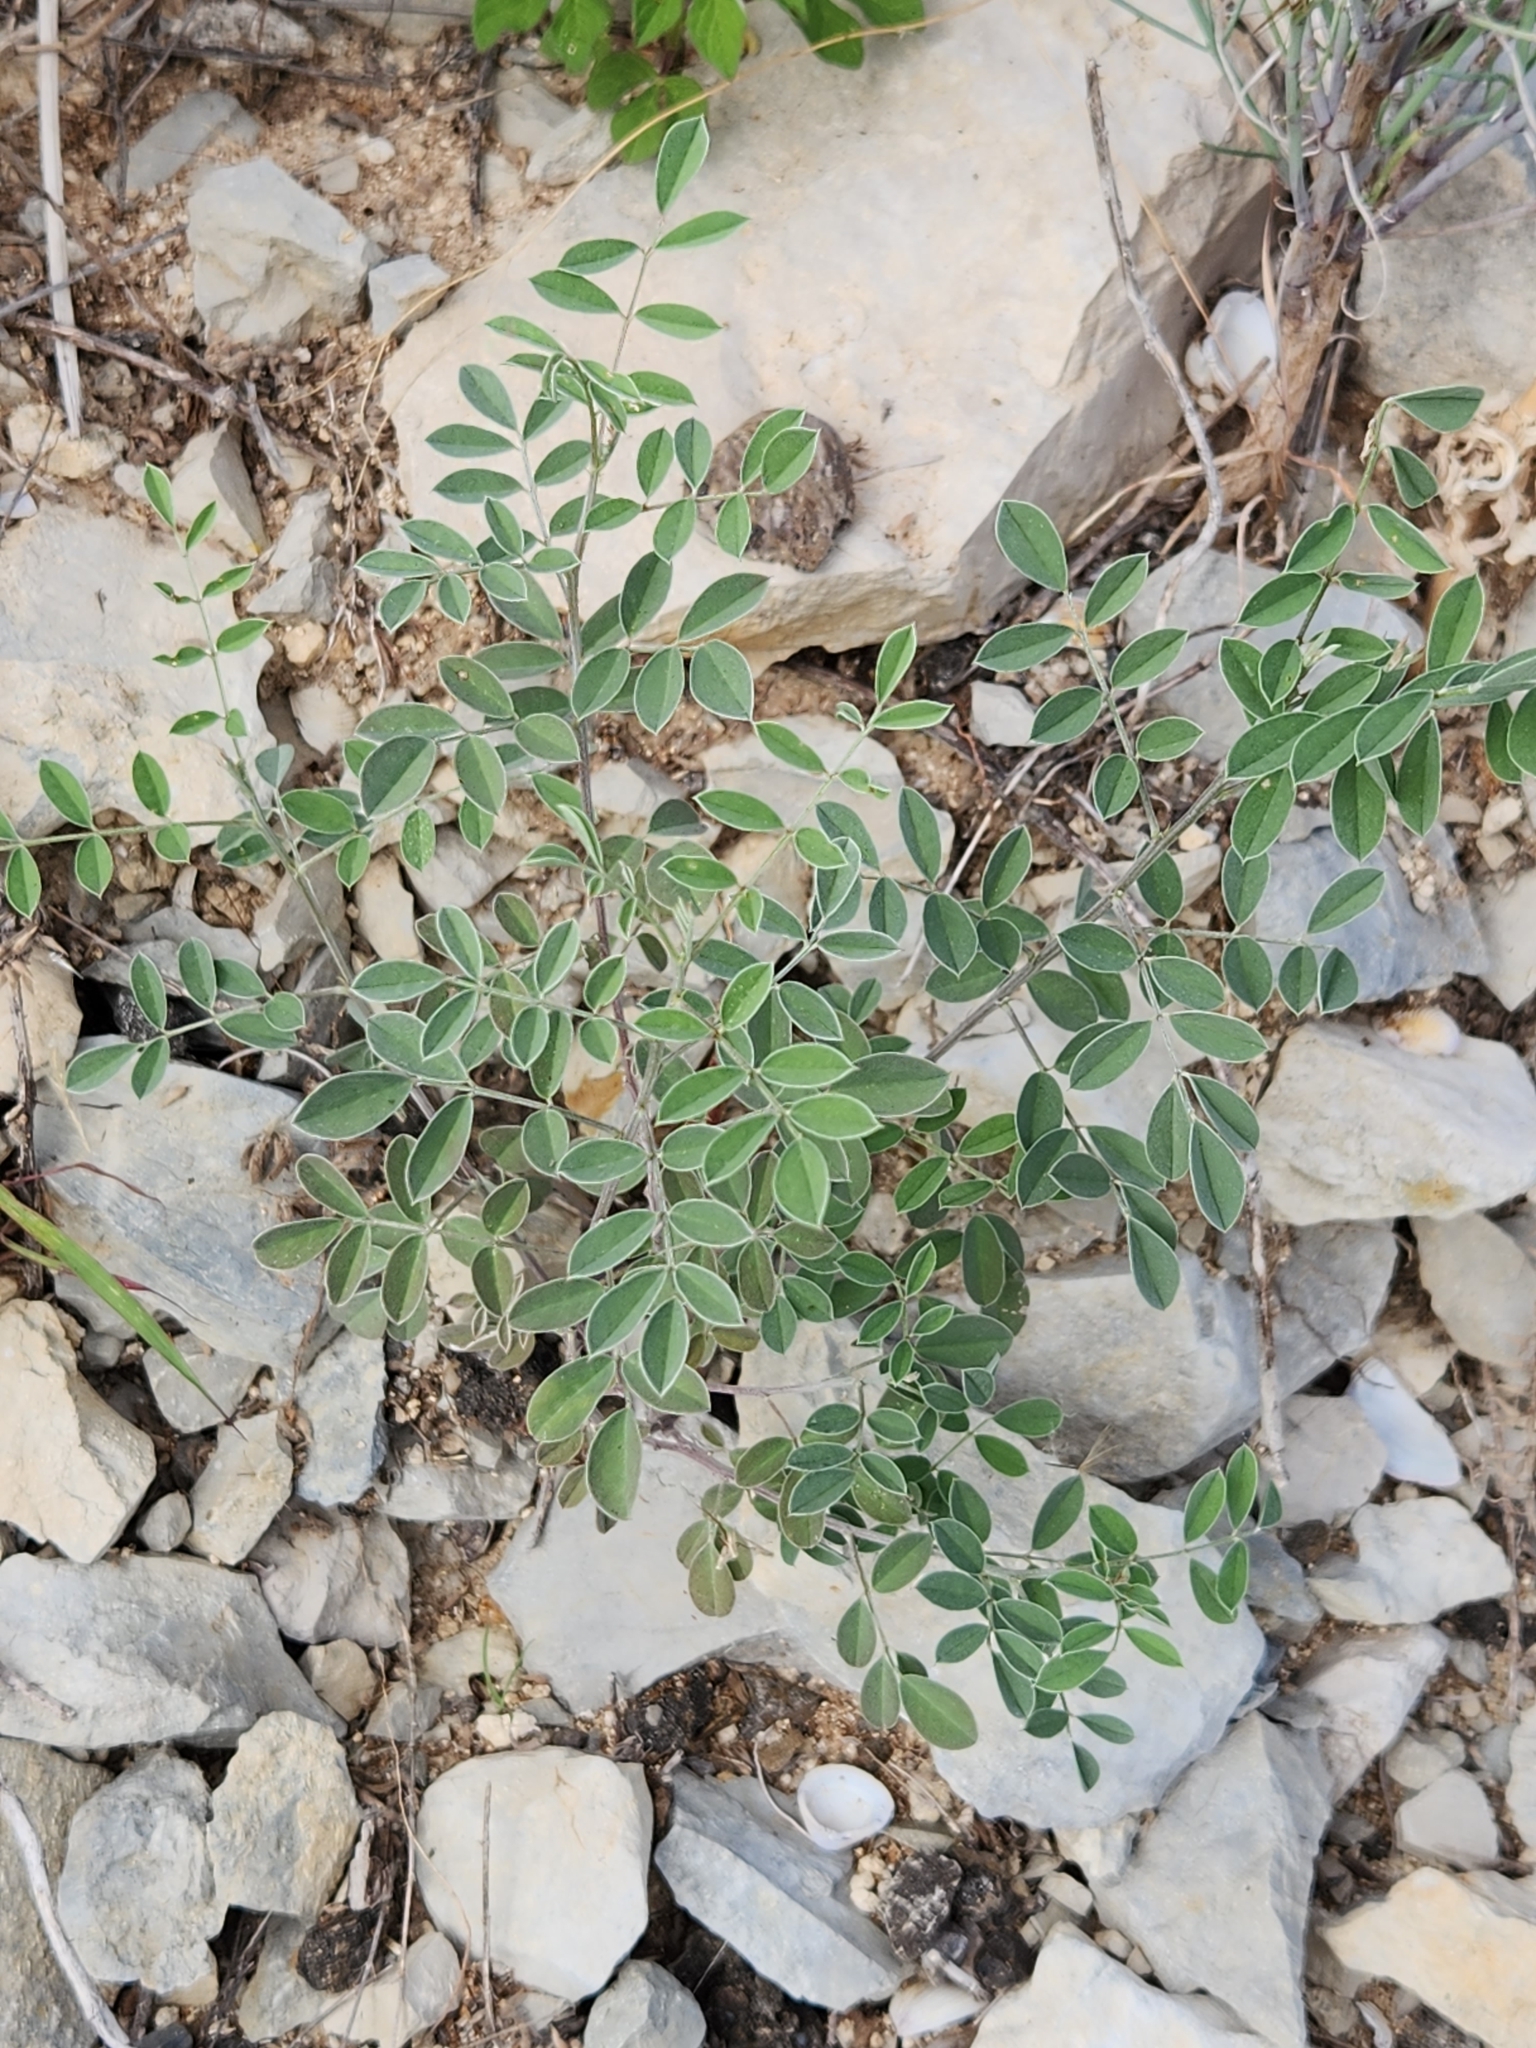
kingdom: Plantae
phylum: Tracheophyta
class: Magnoliopsida
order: Fabales
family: Fabaceae
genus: Indigofera
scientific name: Indigofera lindheimeriana
